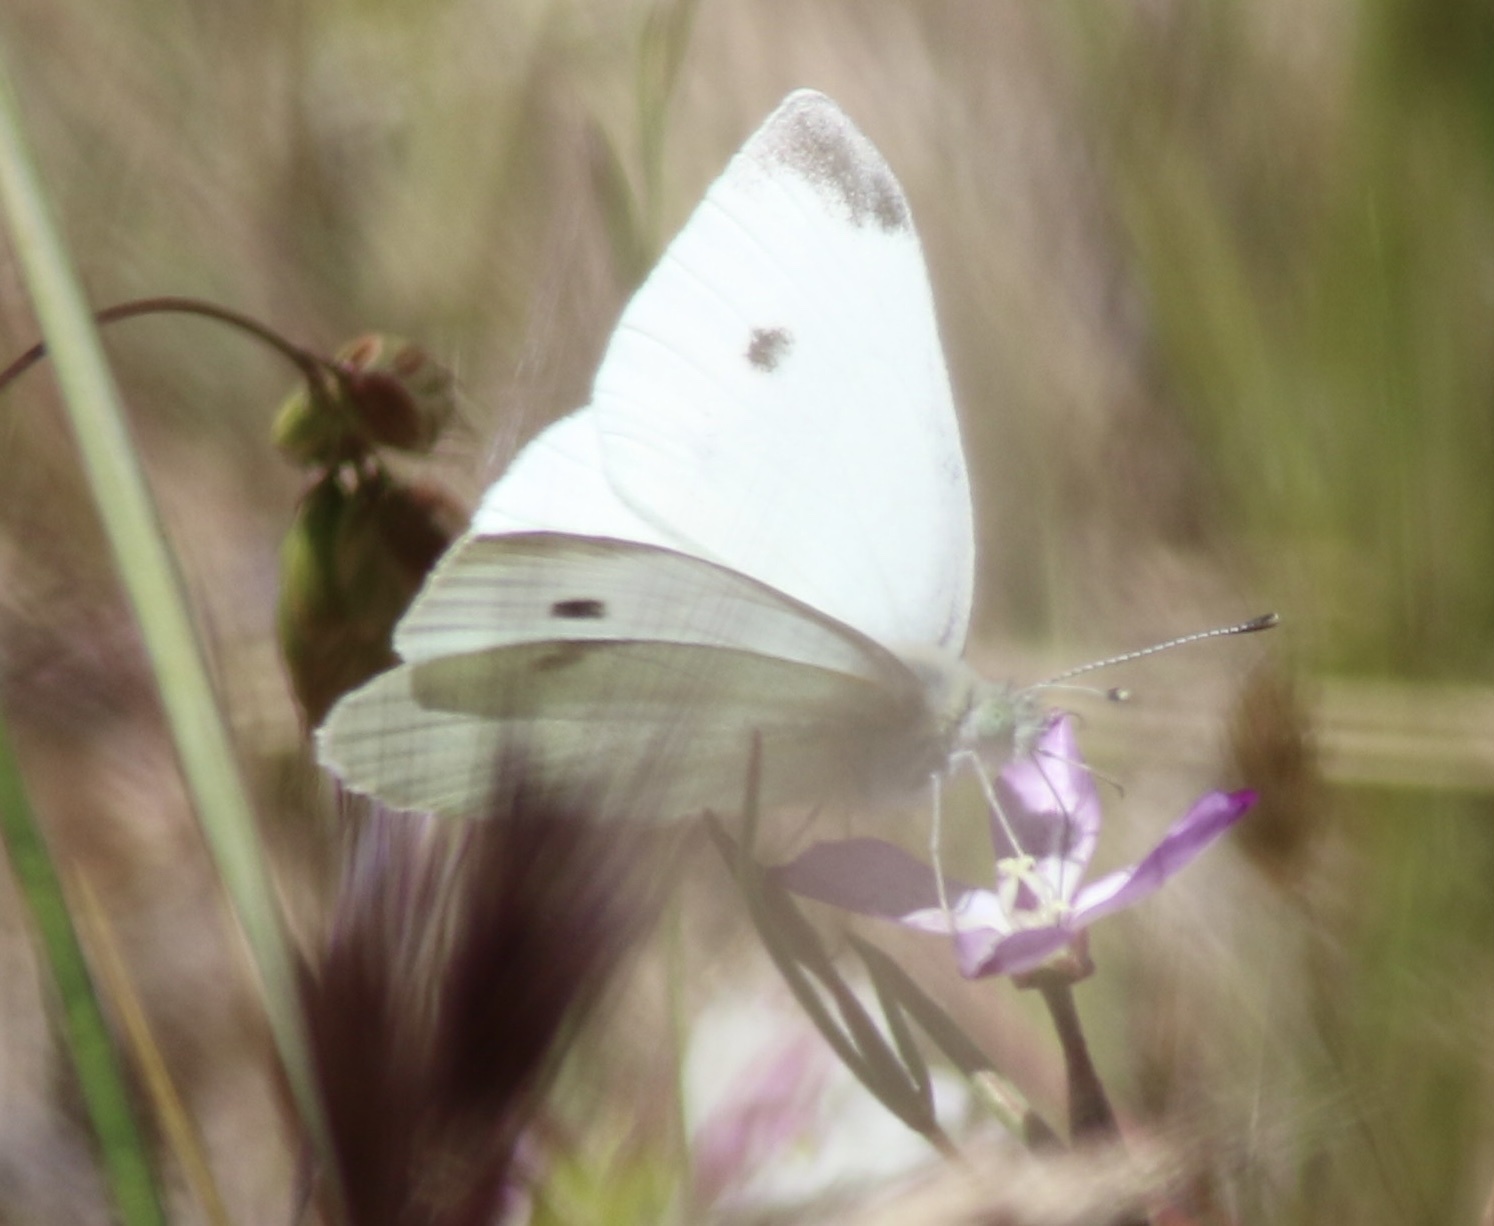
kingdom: Animalia
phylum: Arthropoda
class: Insecta
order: Lepidoptera
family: Pieridae
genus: Pieris
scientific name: Pieris rapae
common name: Small white
